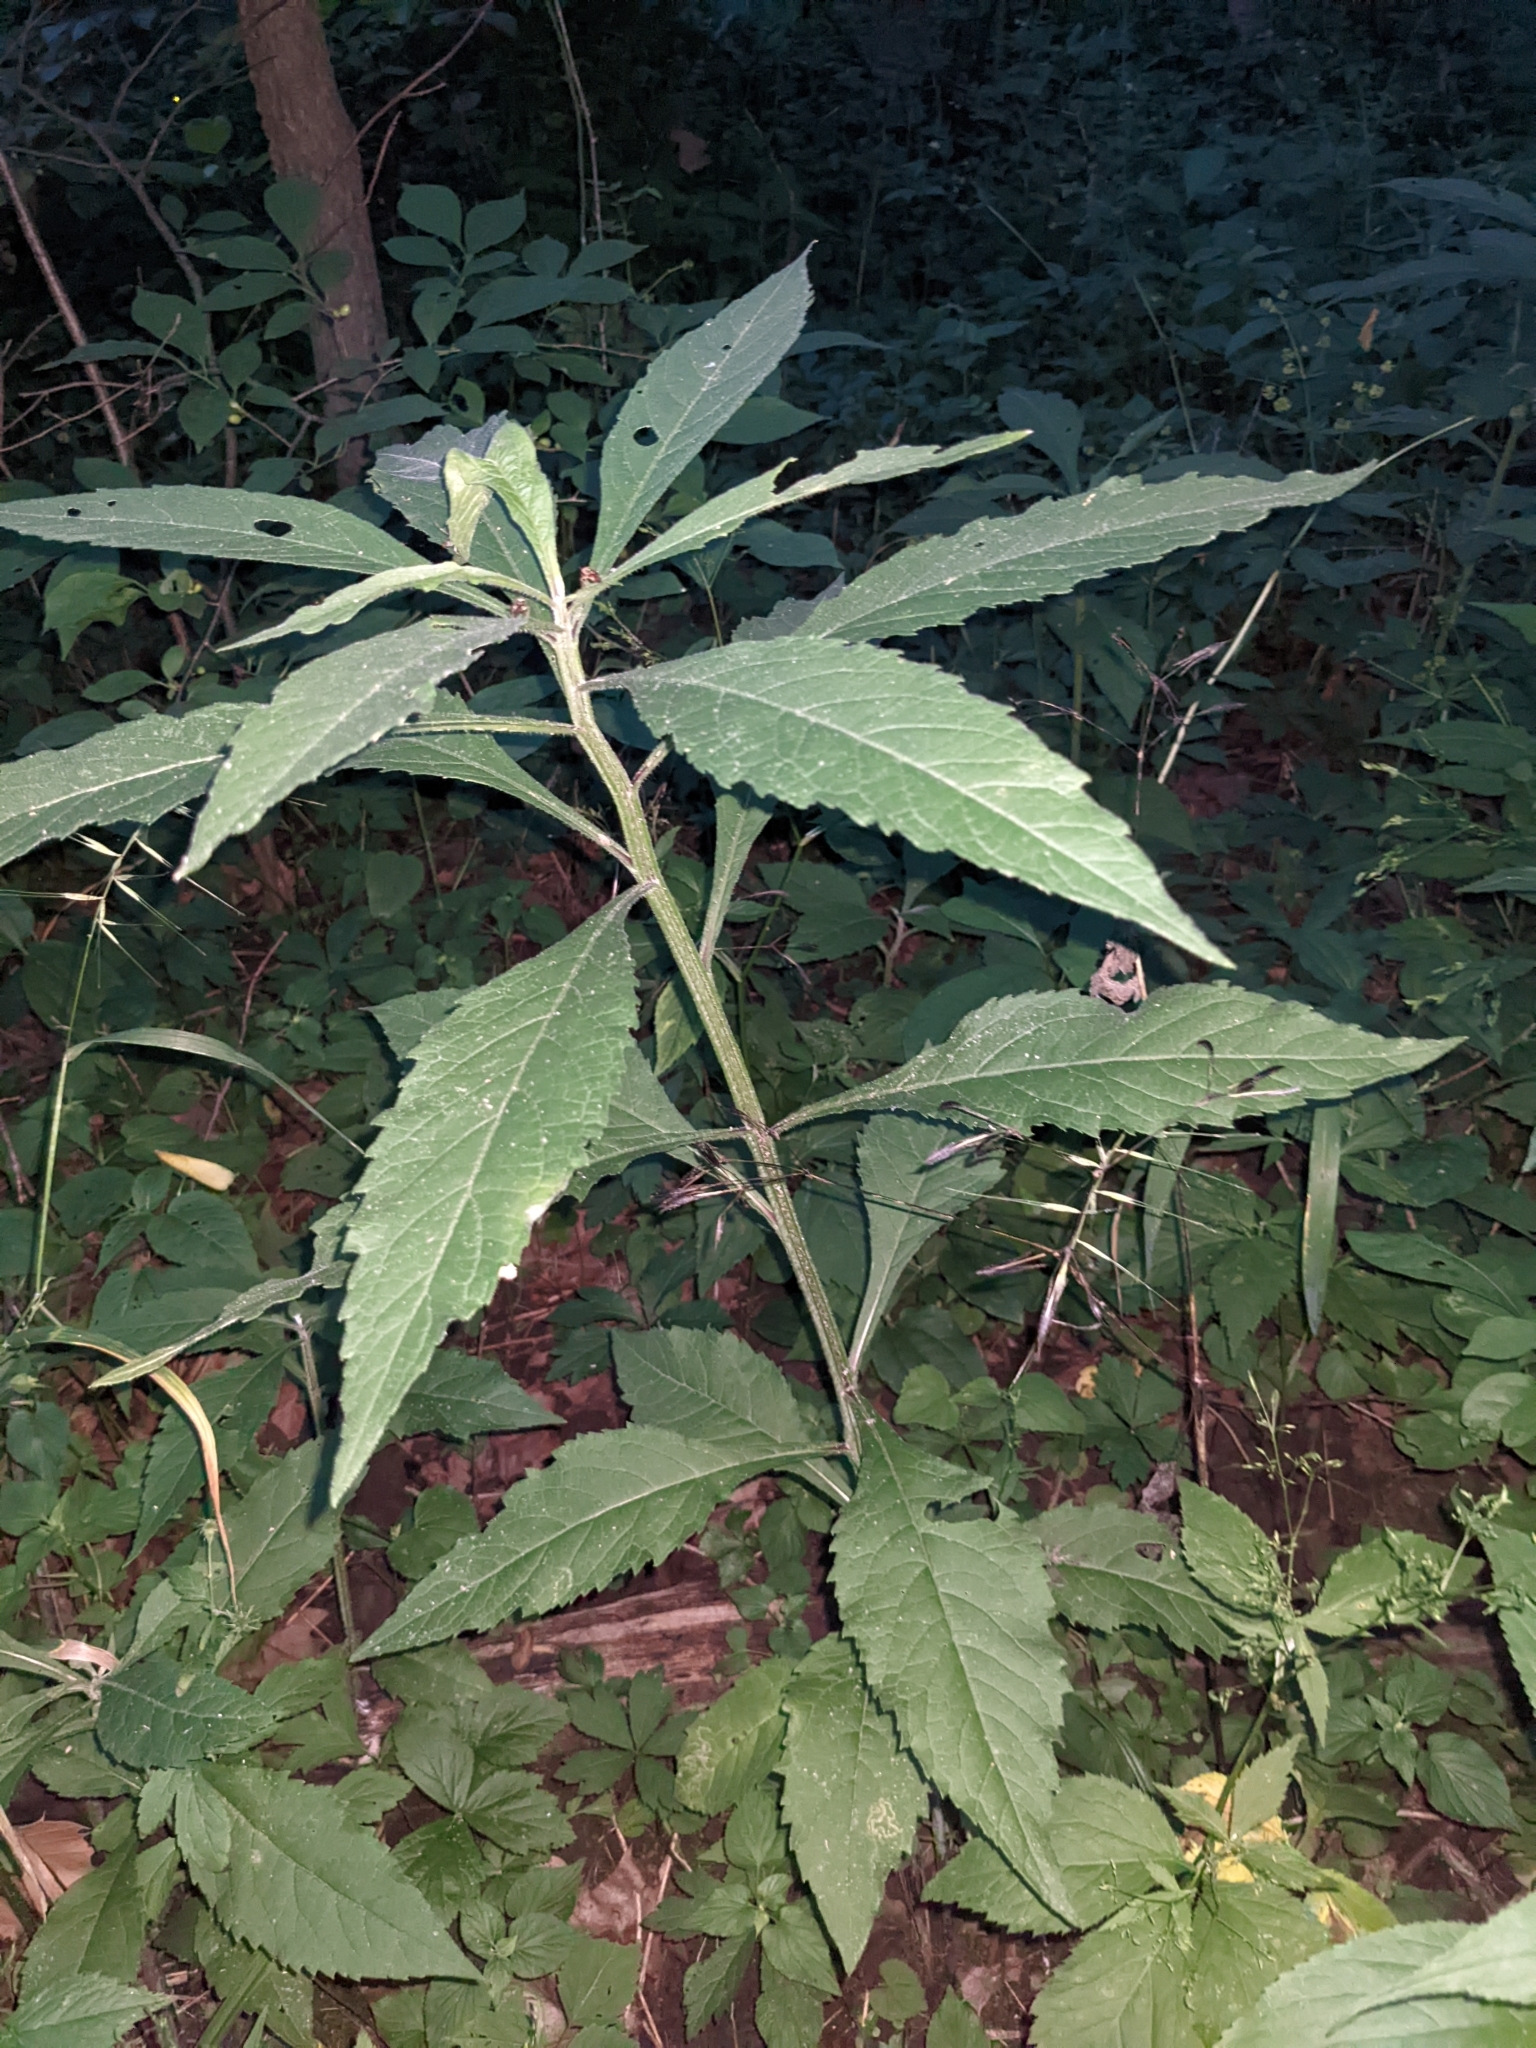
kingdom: Plantae
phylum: Tracheophyta
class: Magnoliopsida
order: Asterales
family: Asteraceae
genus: Verbesina
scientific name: Verbesina alternifolia
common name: Wingstem
